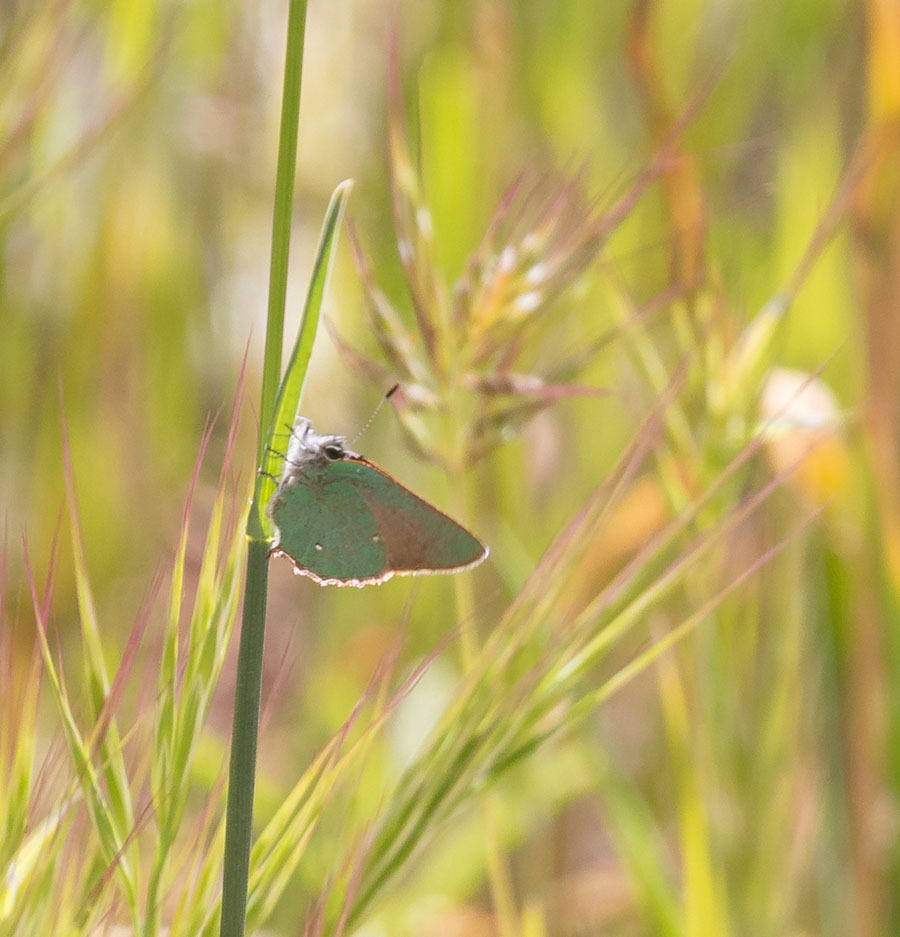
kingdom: Animalia
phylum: Arthropoda
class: Insecta
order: Lepidoptera
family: Lycaenidae
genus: Callophrys
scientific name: Callophrys dumetorum
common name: Bramble hairstreak
